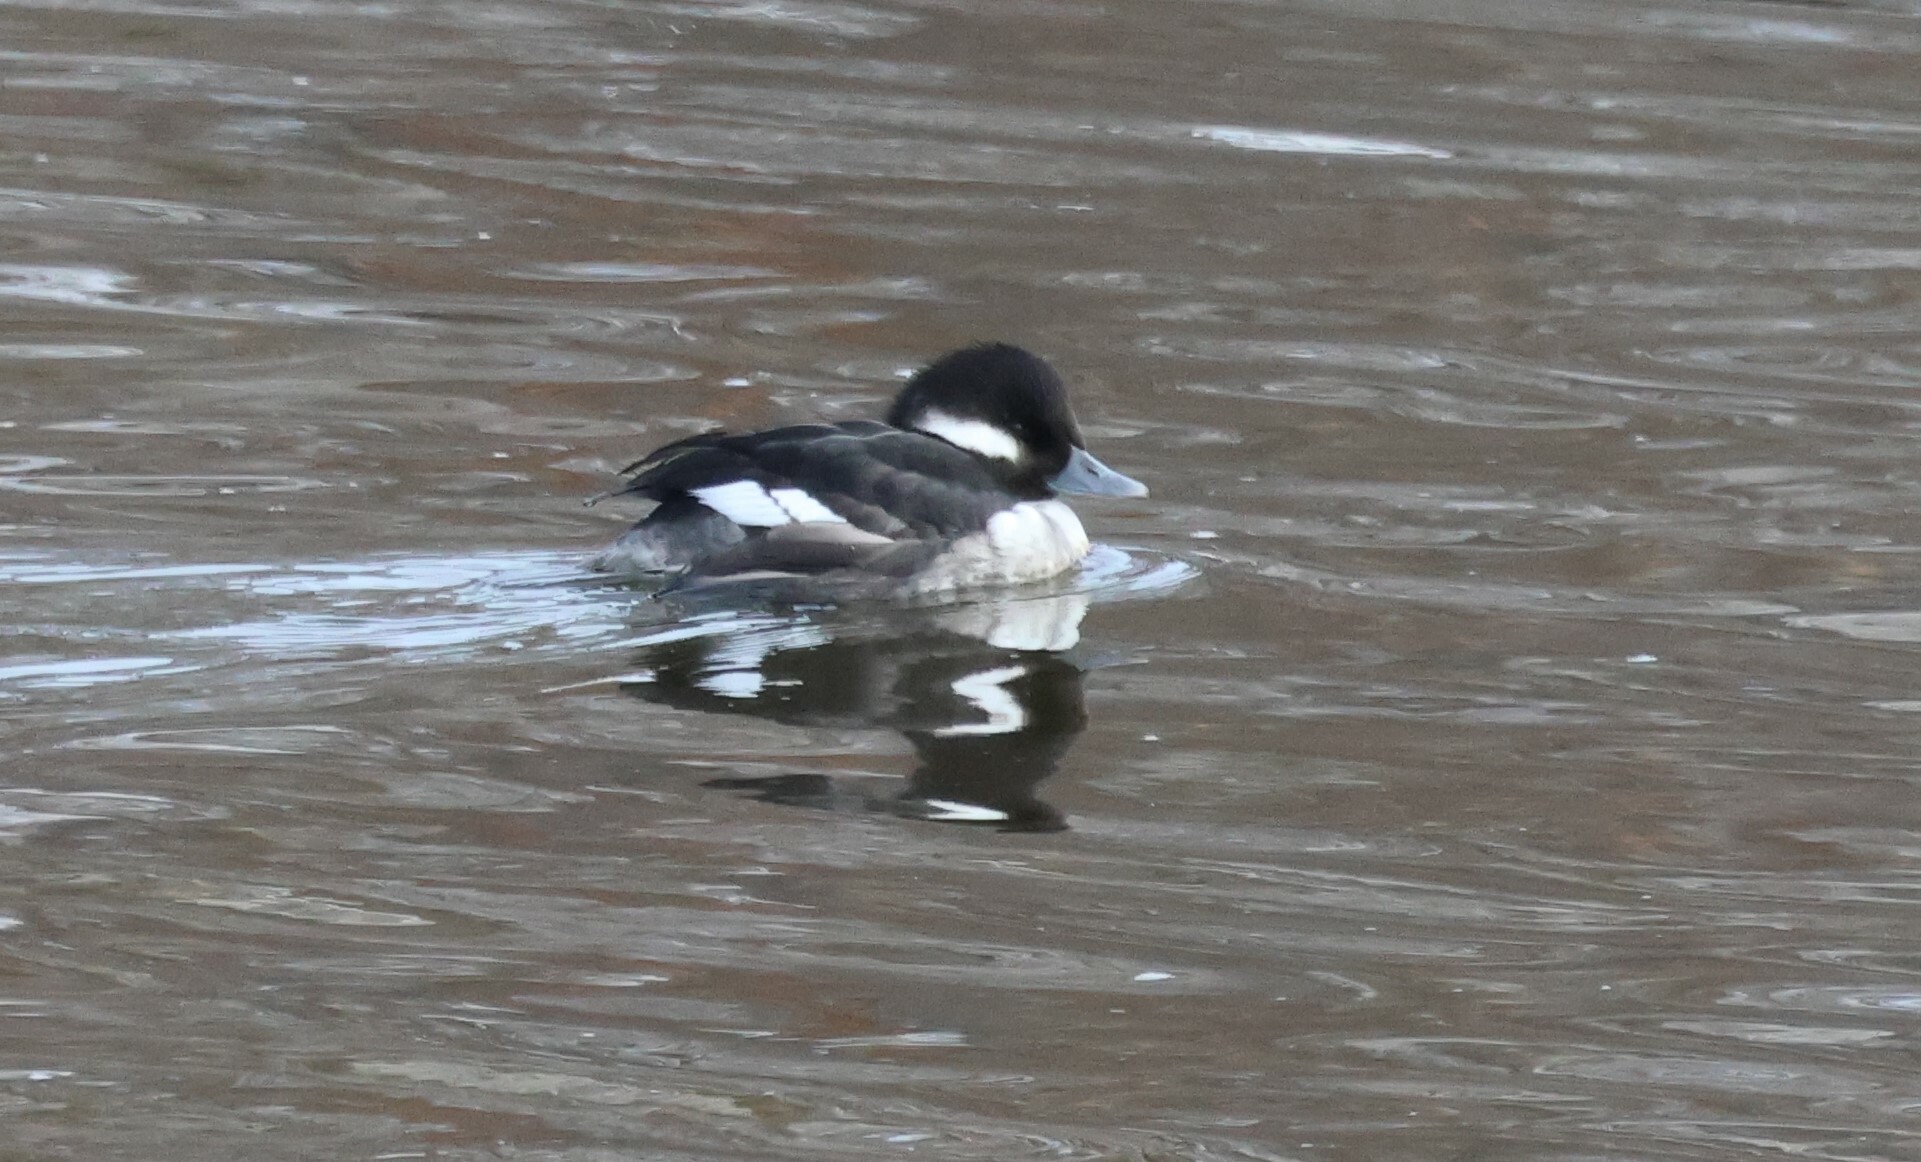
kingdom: Animalia
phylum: Chordata
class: Aves
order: Anseriformes
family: Anatidae
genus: Bucephala
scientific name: Bucephala albeola
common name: Bufflehead
